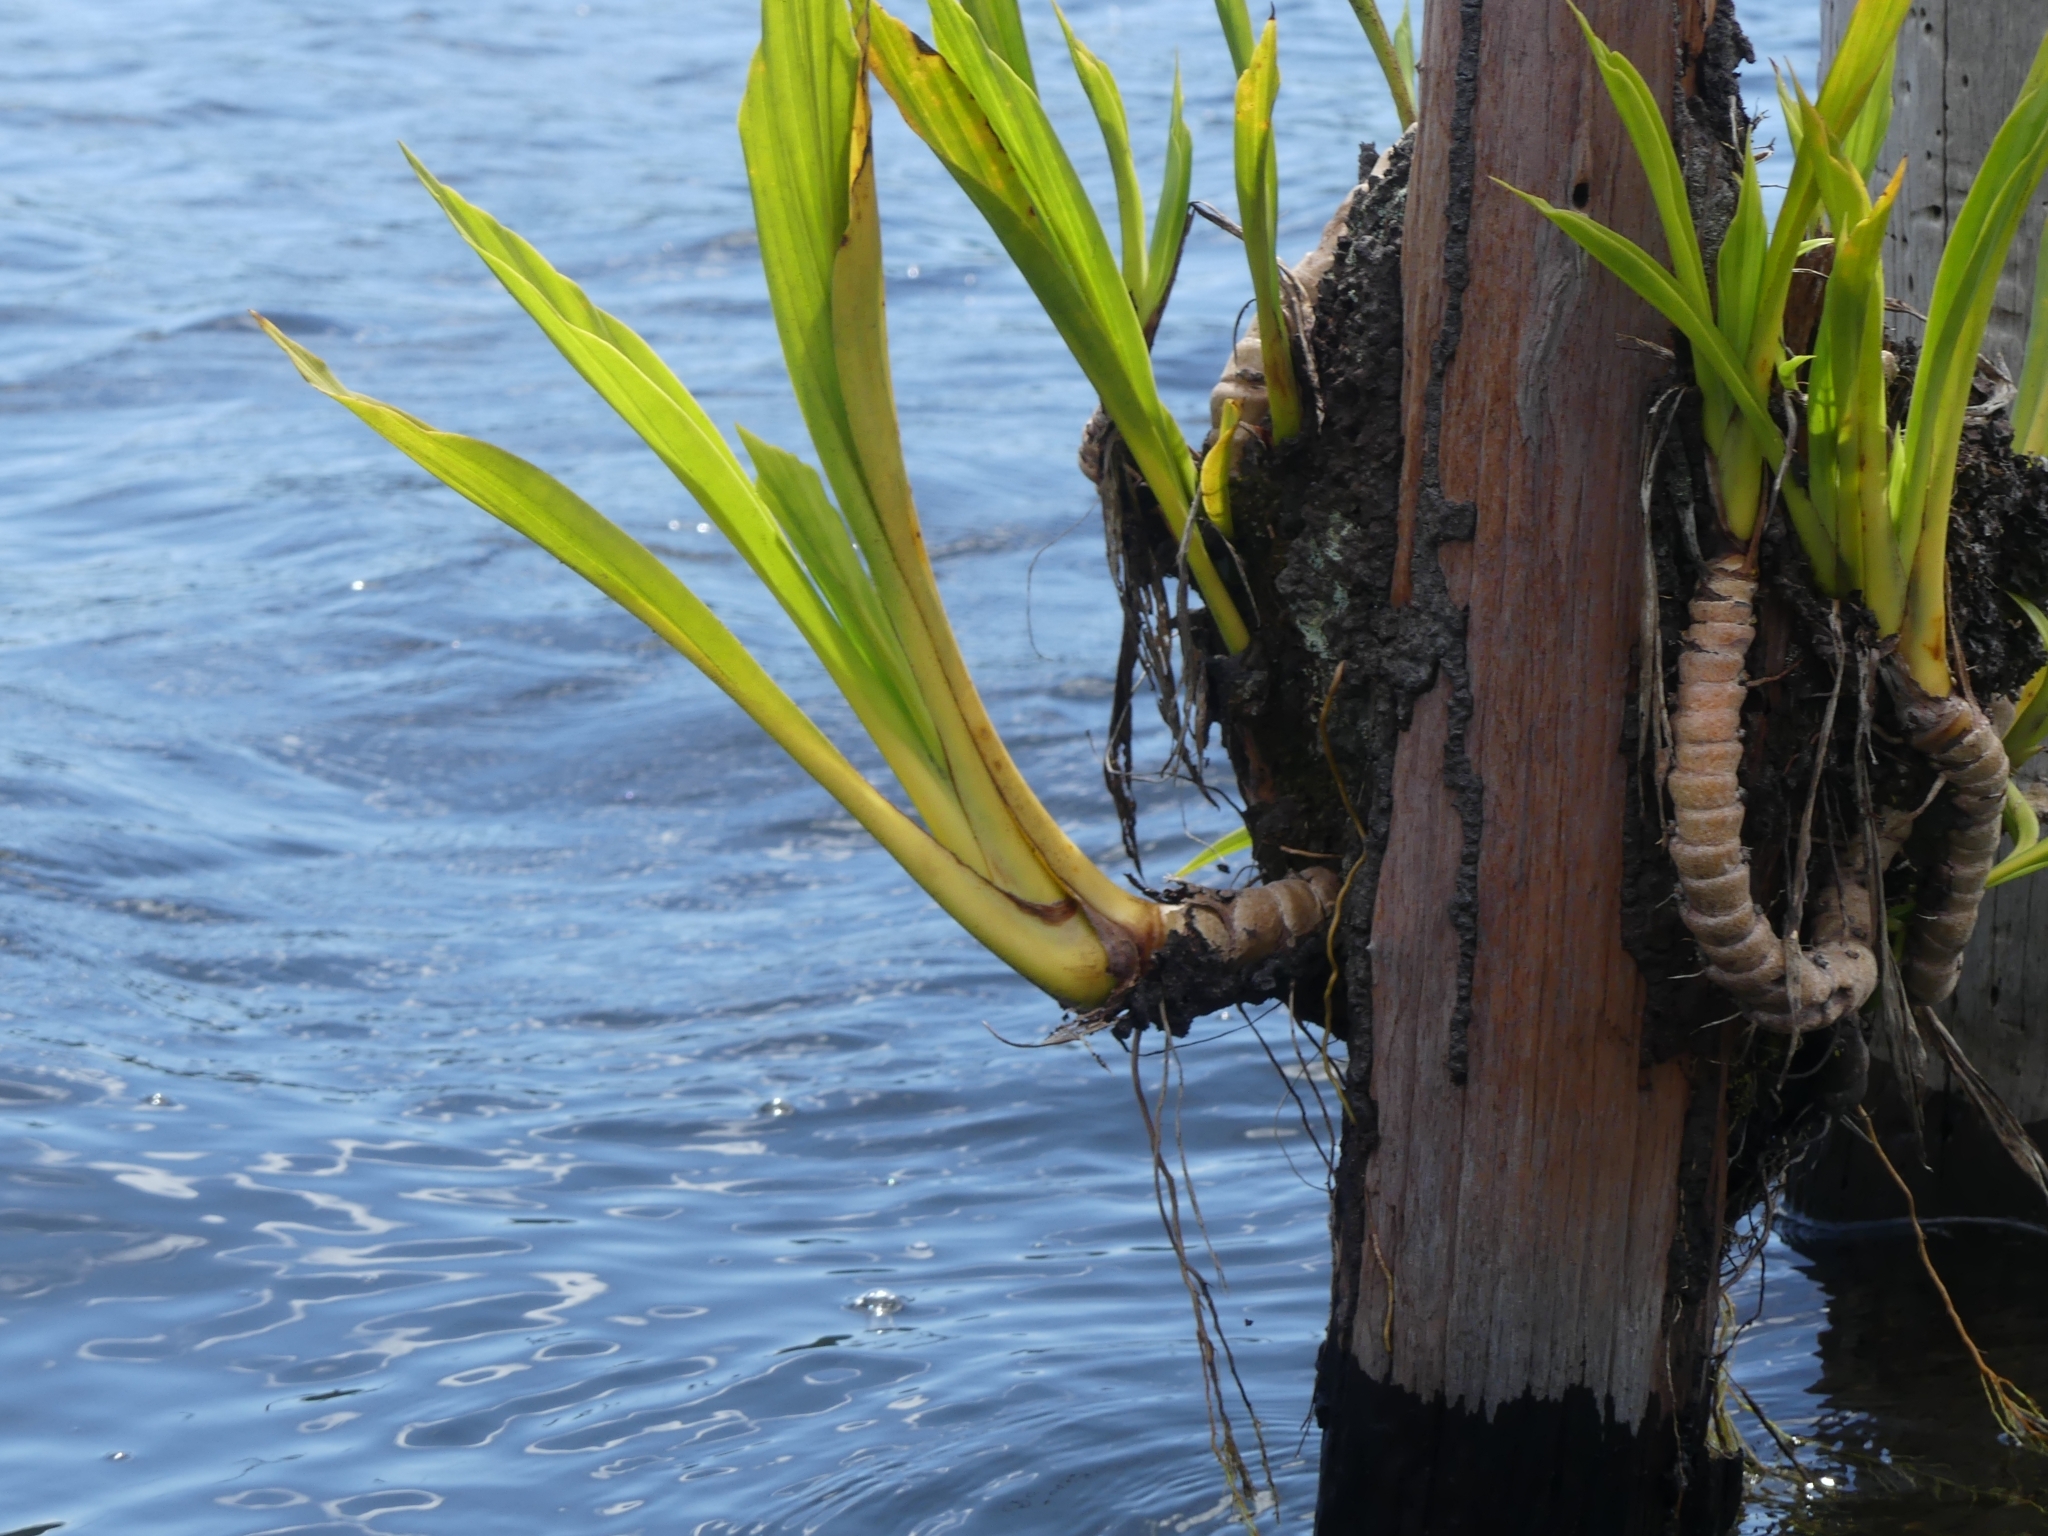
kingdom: Plantae
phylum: Tracheophyta
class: Liliopsida
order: Pandanales
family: Cyclanthaceae
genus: Ludovia
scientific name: Ludovia lancifolia
